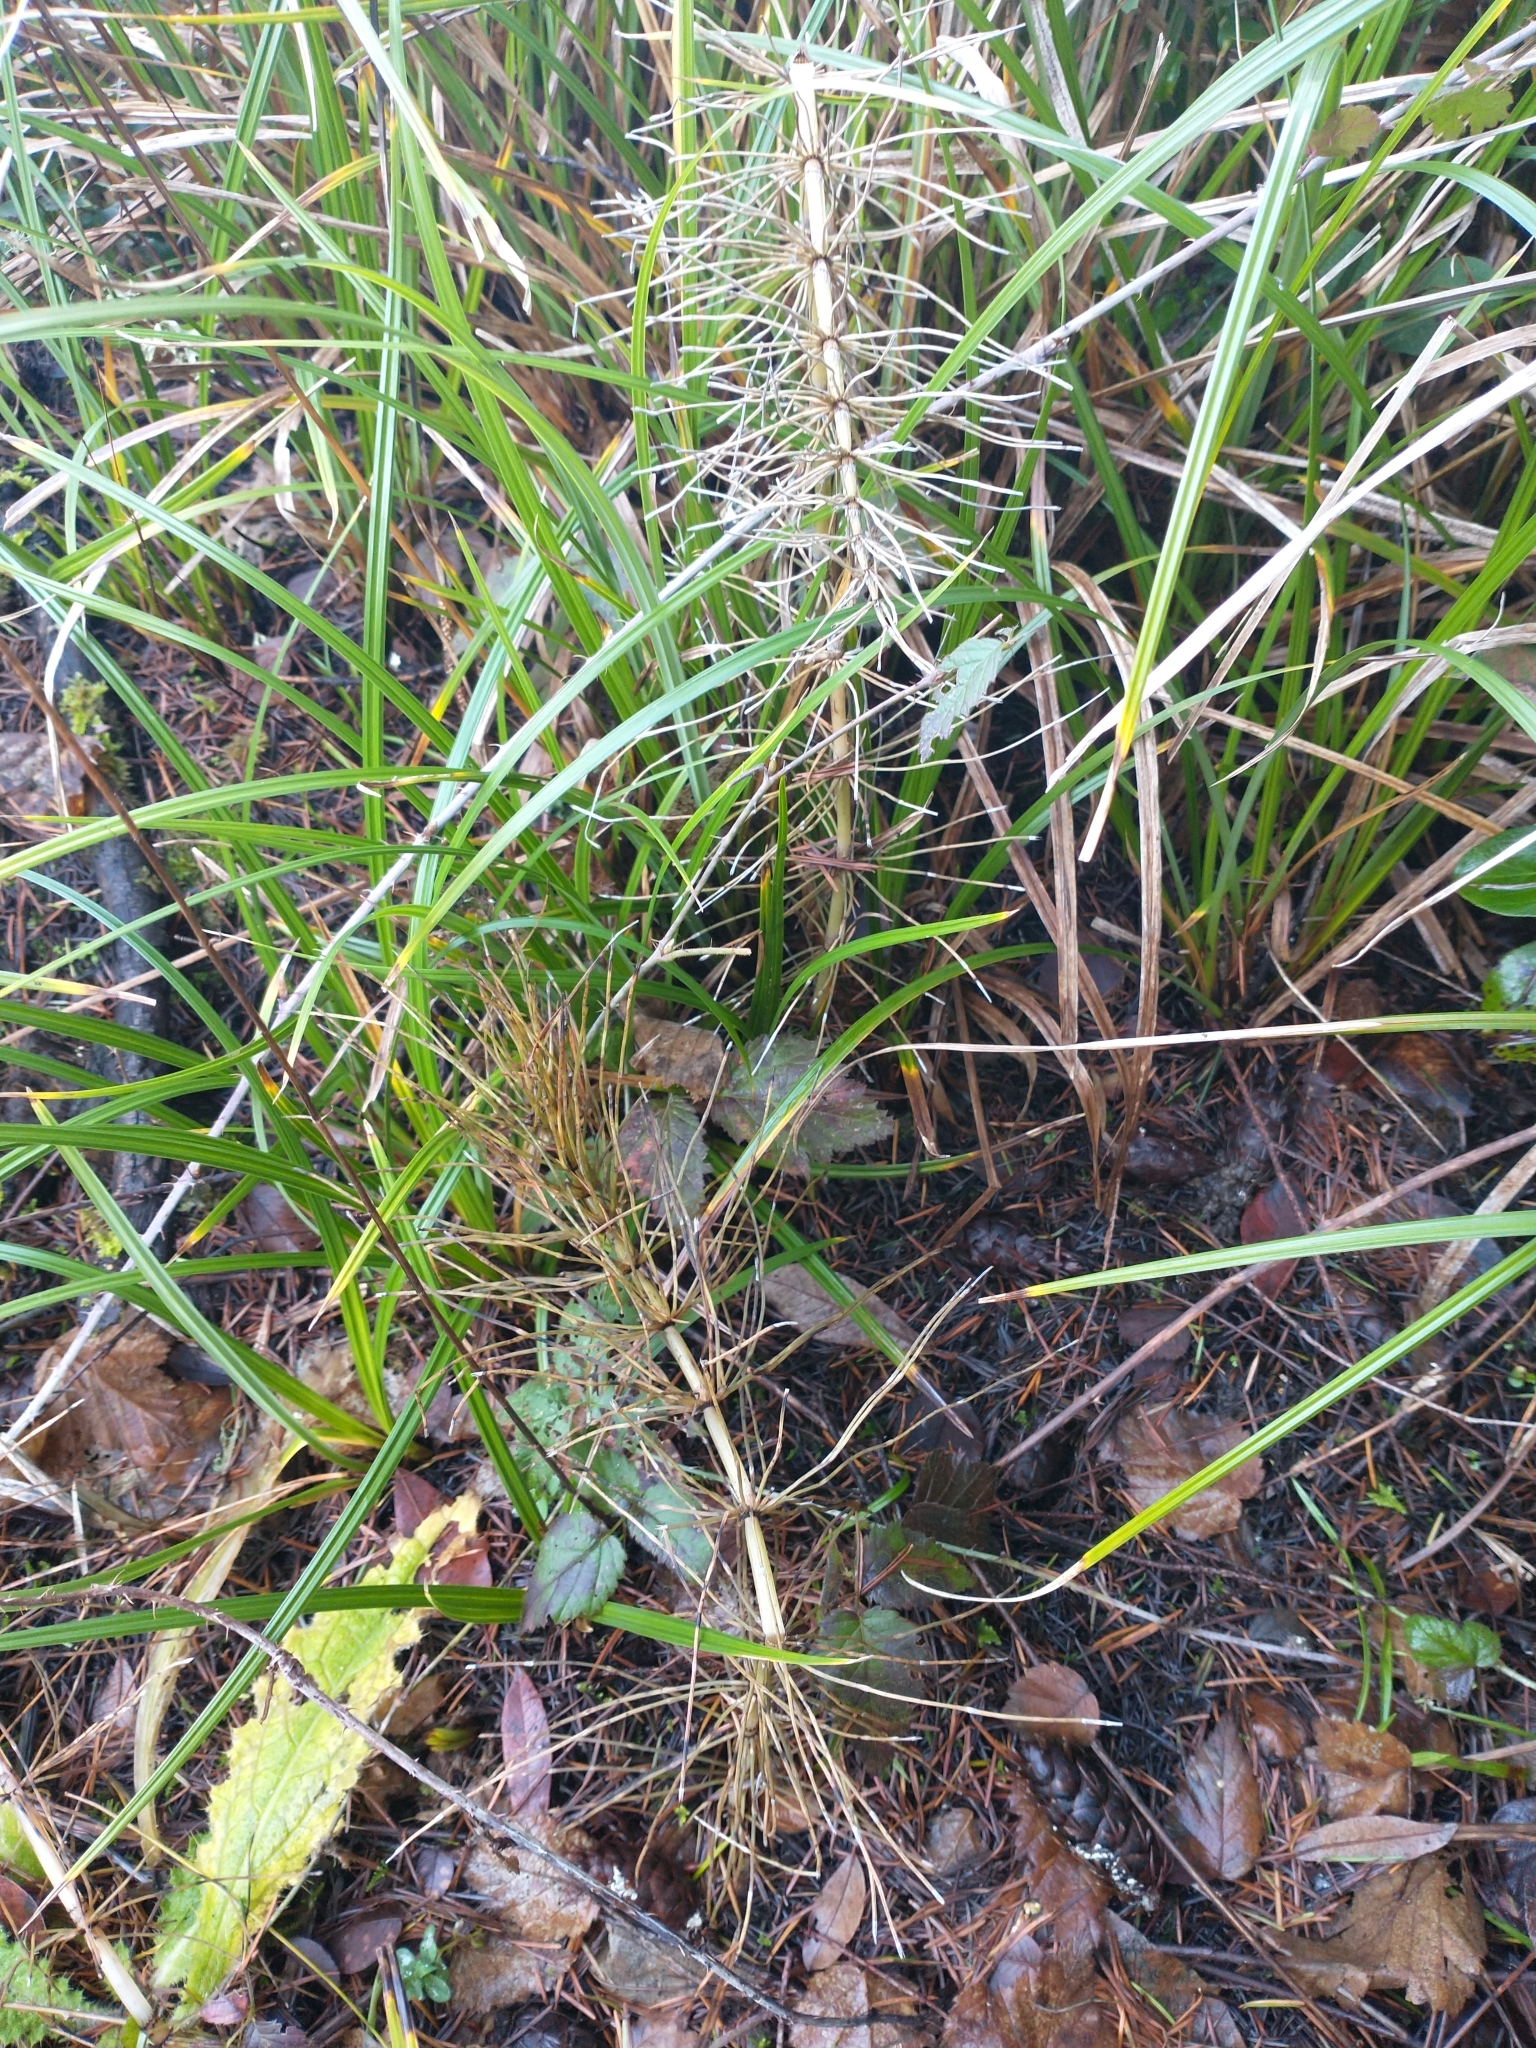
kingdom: Plantae
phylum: Tracheophyta
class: Polypodiopsida
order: Equisetales
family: Equisetaceae
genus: Equisetum
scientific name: Equisetum telmateia
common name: Great horsetail
